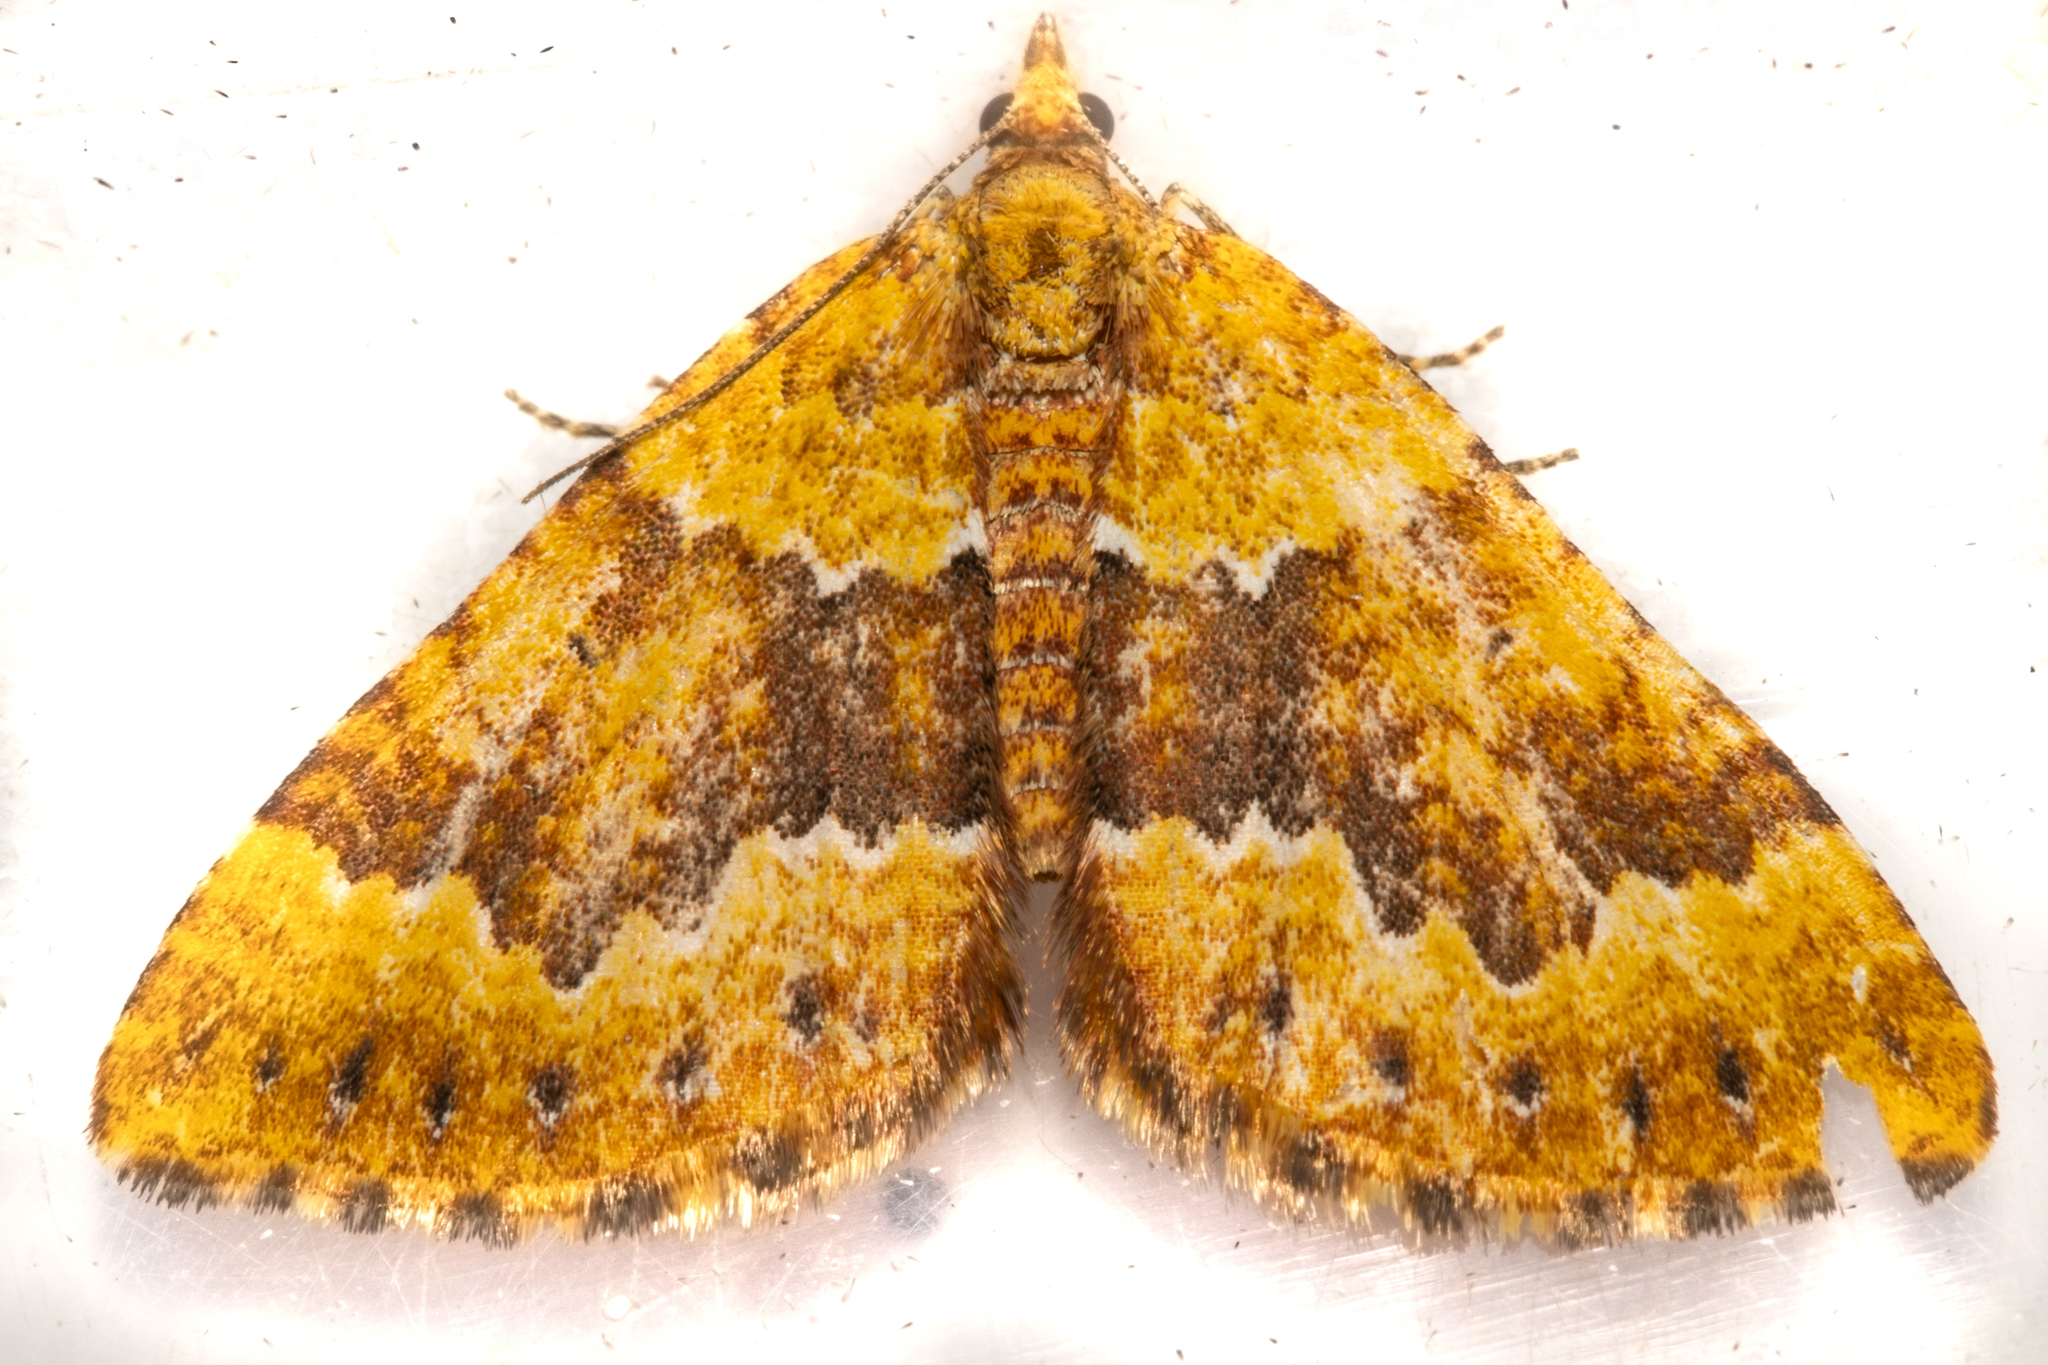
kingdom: Animalia
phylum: Arthropoda
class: Insecta
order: Lepidoptera
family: Geometridae
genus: Asaphodes
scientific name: Asaphodes prasinias
